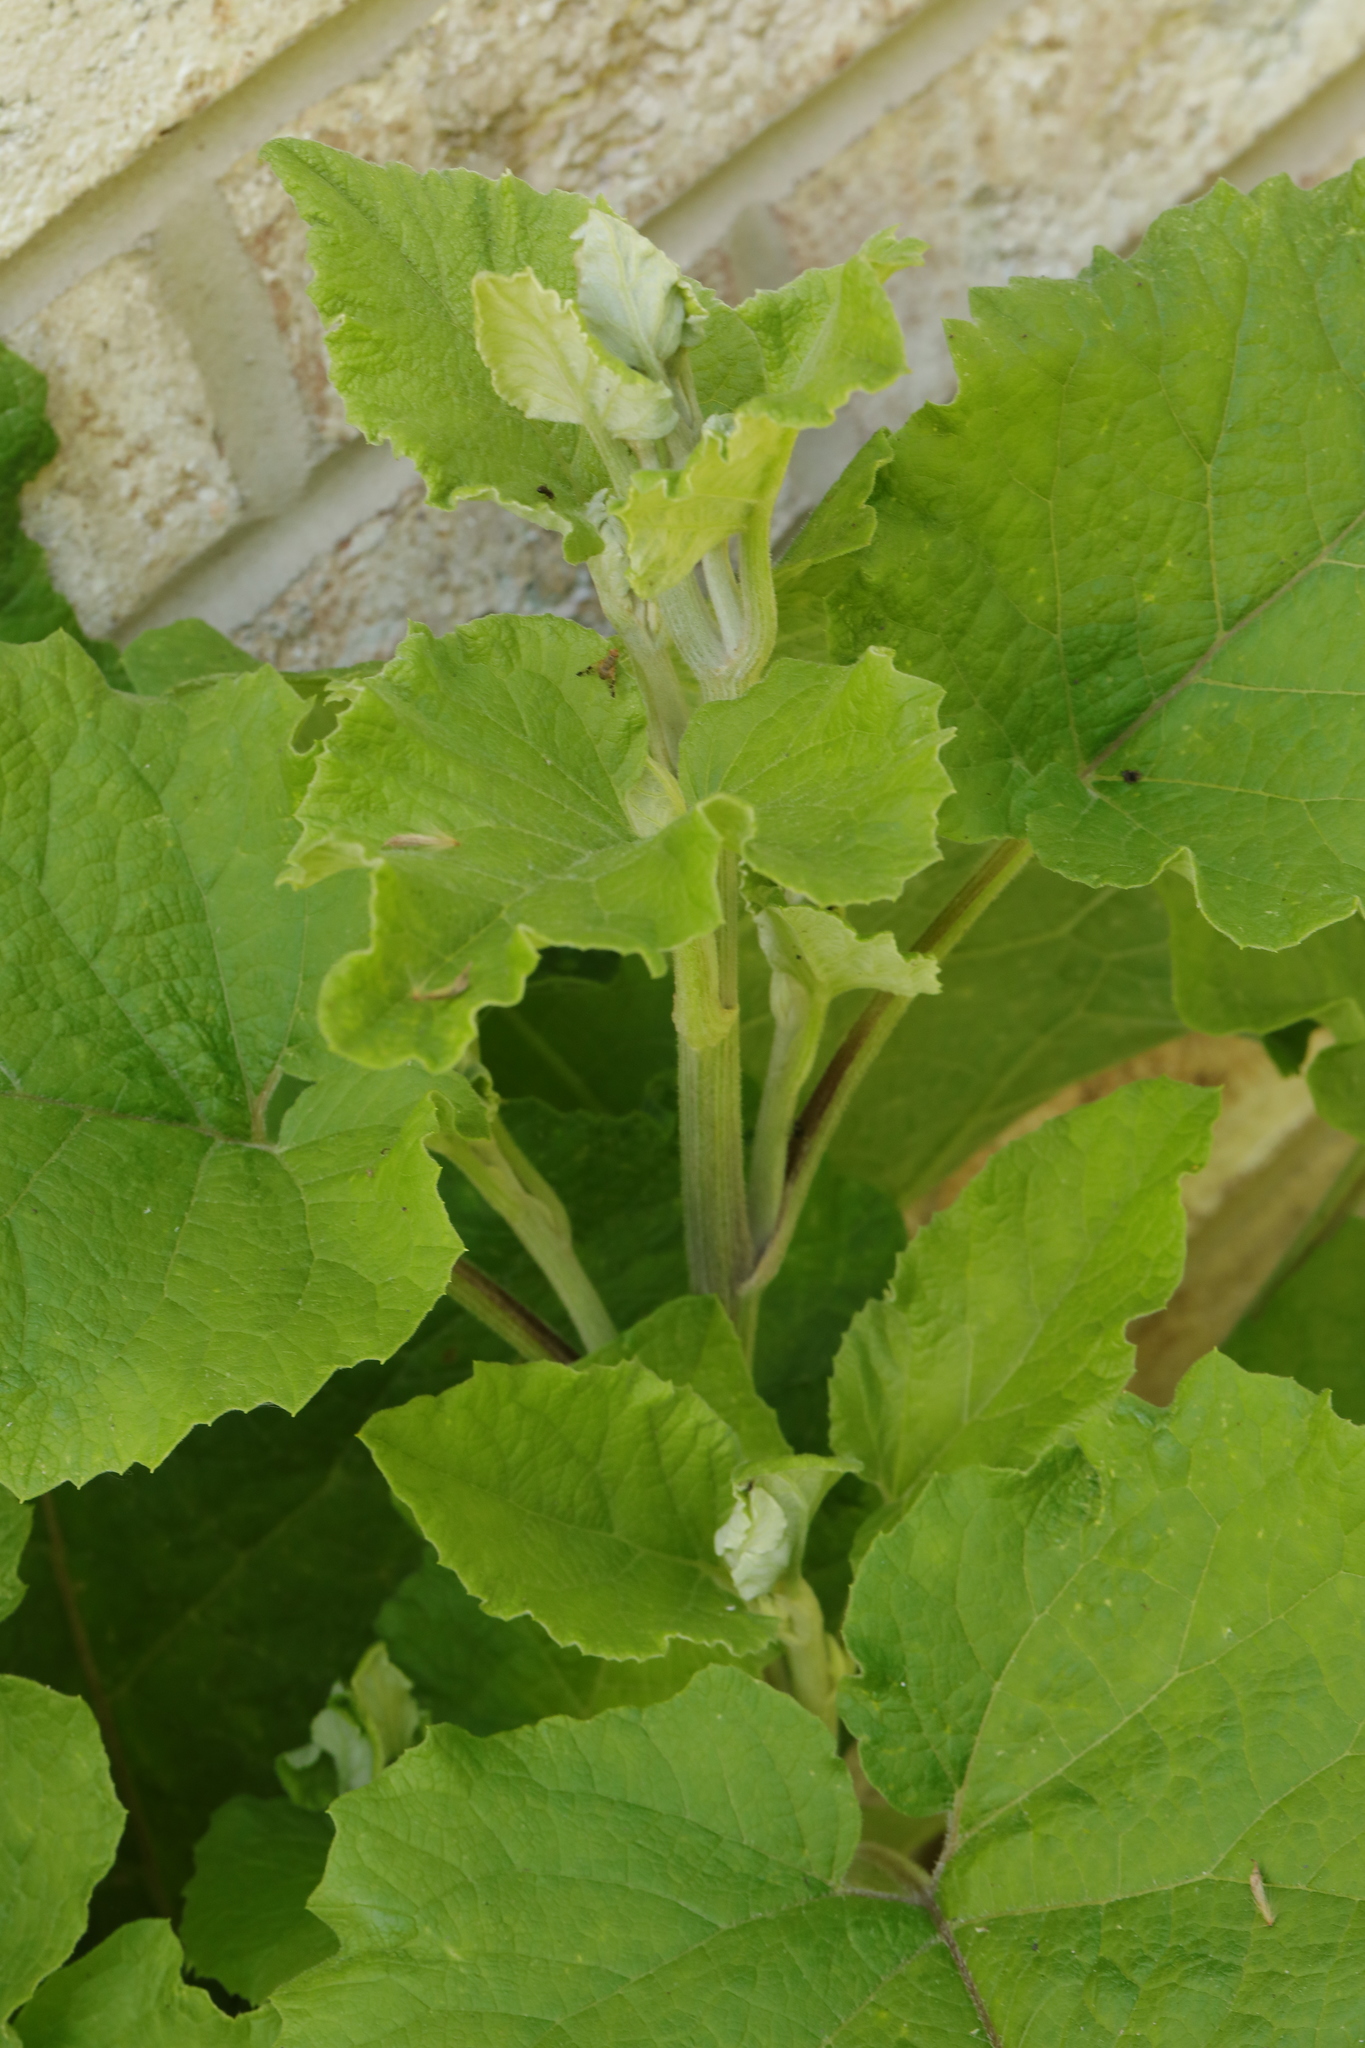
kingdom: Plantae
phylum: Tracheophyta
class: Magnoliopsida
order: Asterales
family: Asteraceae
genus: Arctium
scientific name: Arctium minus
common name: Lesser burdock
